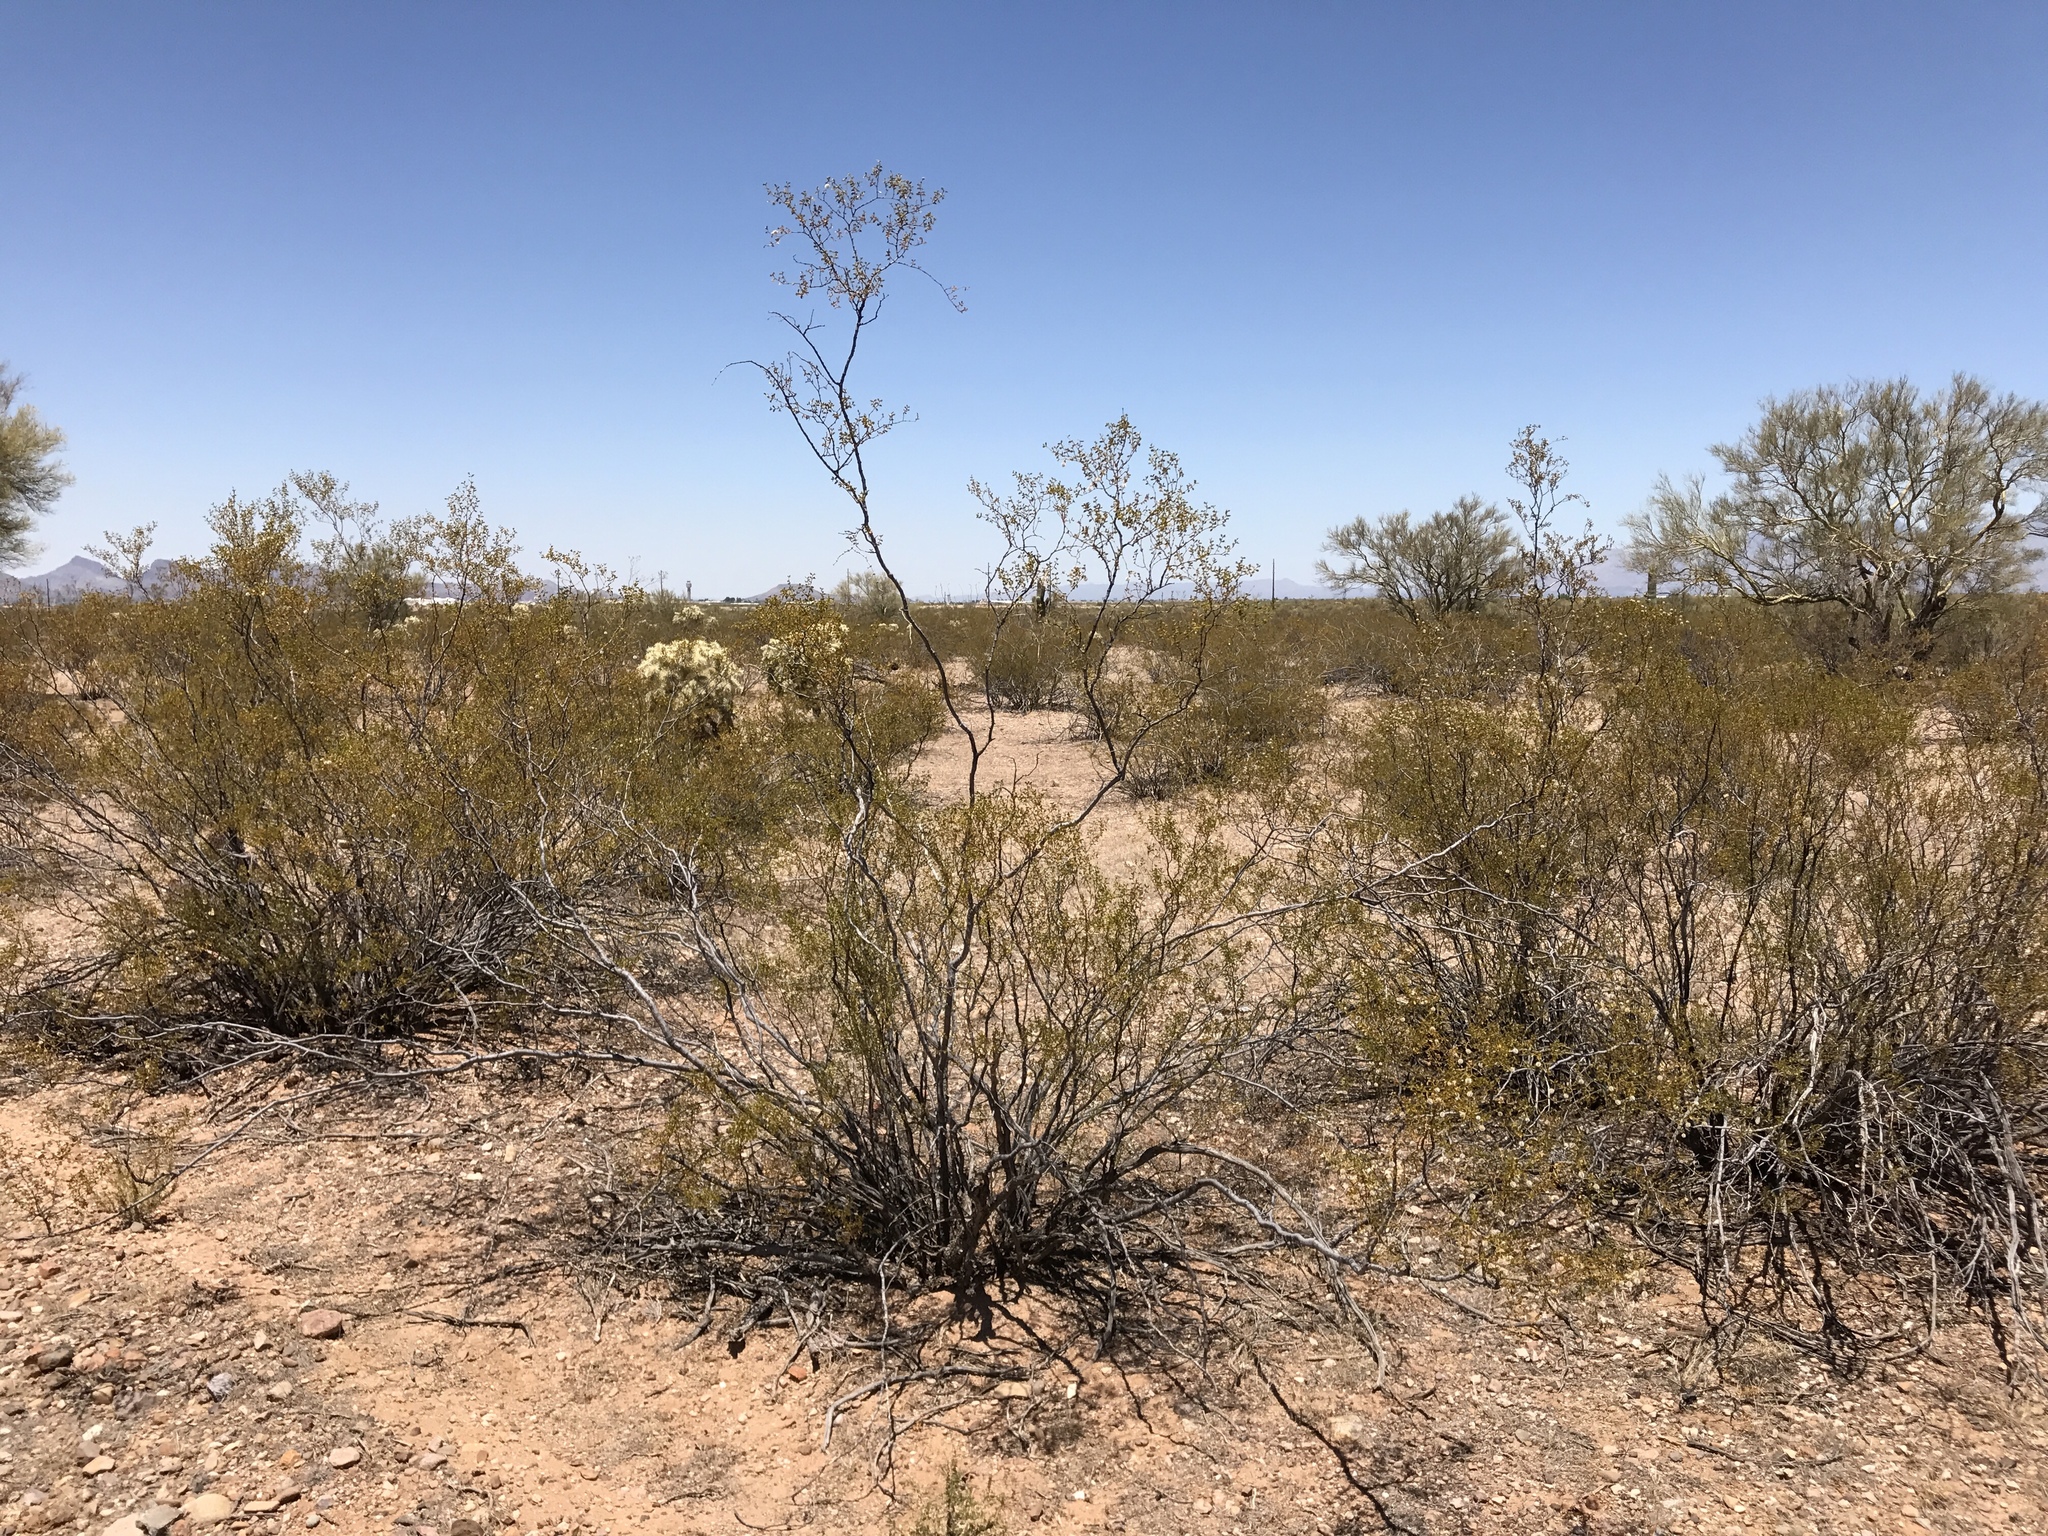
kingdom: Plantae
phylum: Tracheophyta
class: Magnoliopsida
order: Zygophyllales
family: Zygophyllaceae
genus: Larrea
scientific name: Larrea tridentata
